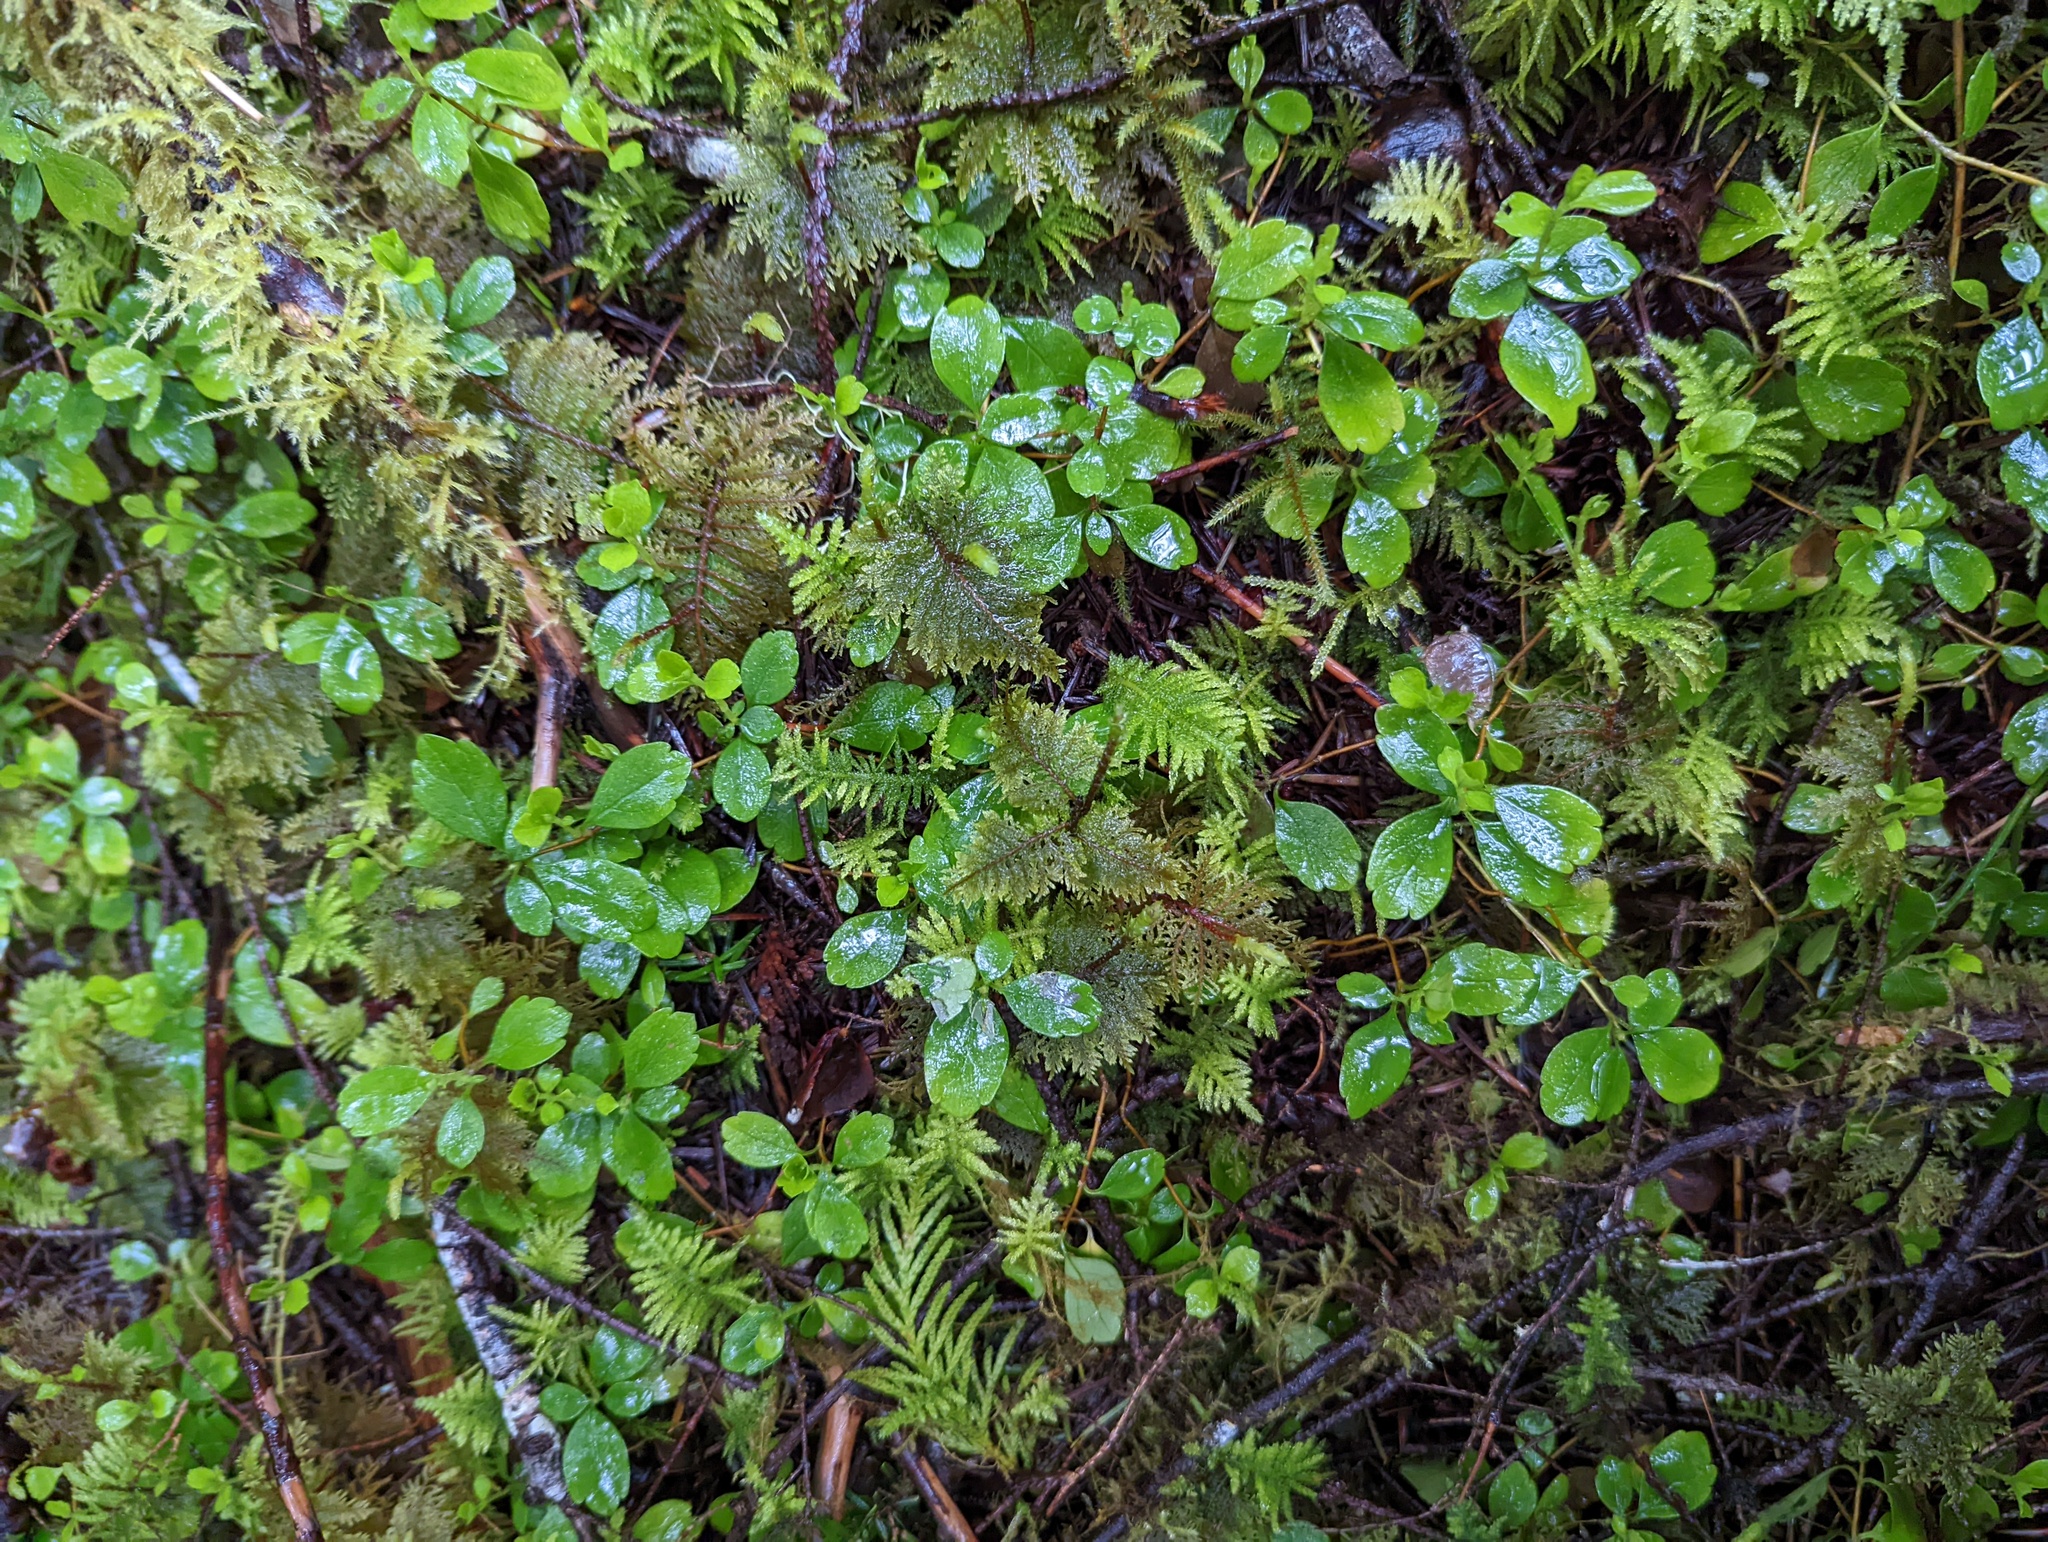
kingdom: Plantae
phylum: Tracheophyta
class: Magnoliopsida
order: Dipsacales
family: Caprifoliaceae
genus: Linnaea
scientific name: Linnaea borealis
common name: Twinflower
